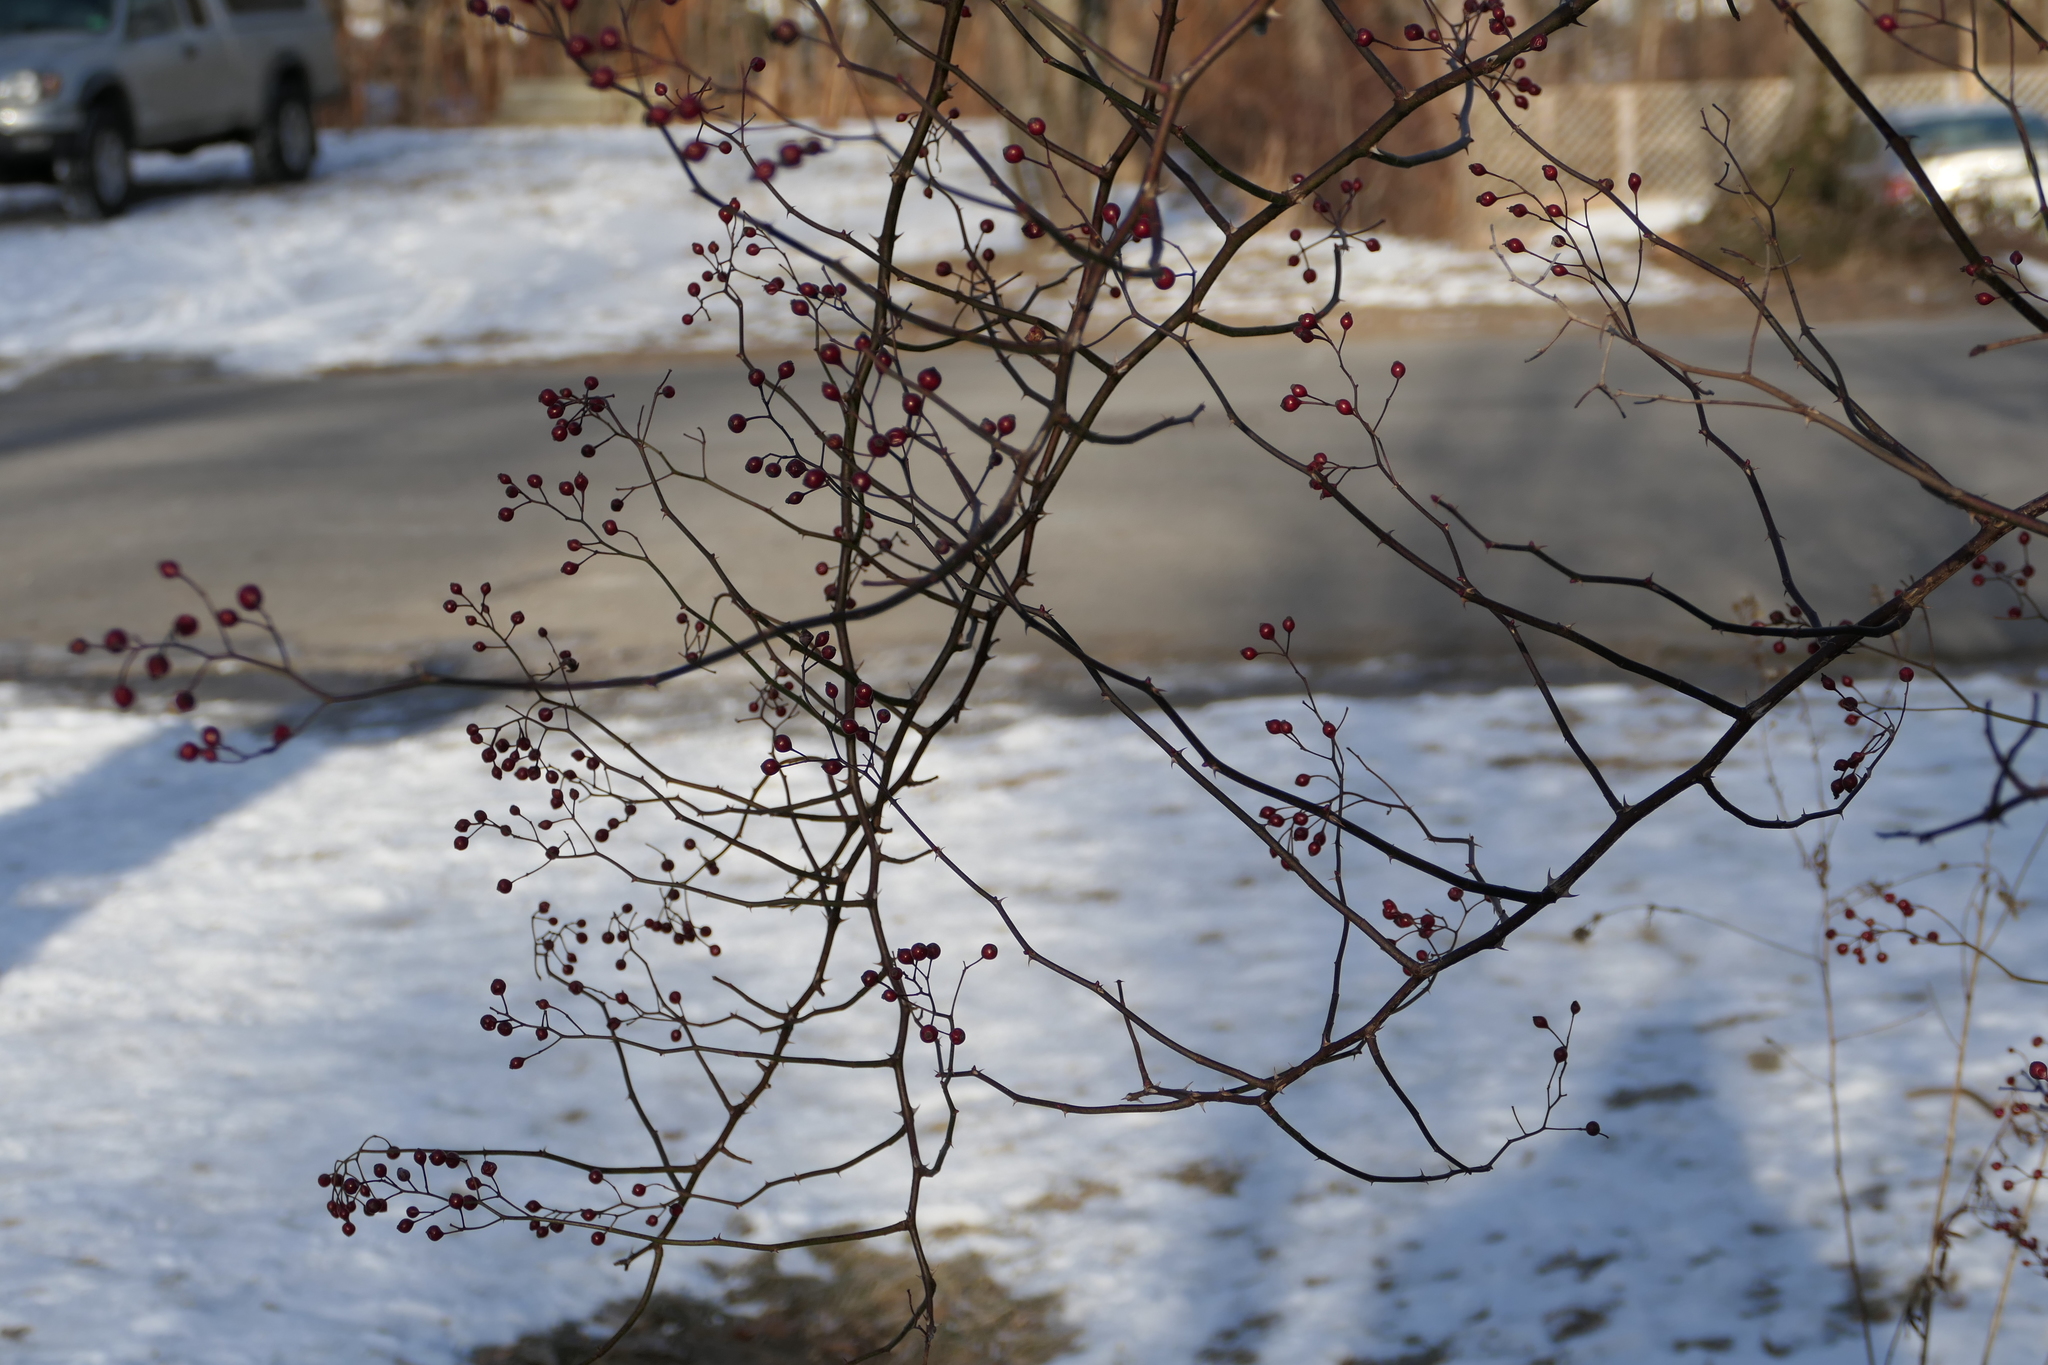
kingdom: Plantae
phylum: Tracheophyta
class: Magnoliopsida
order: Rosales
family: Rosaceae
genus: Rosa
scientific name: Rosa multiflora
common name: Multiflora rose
